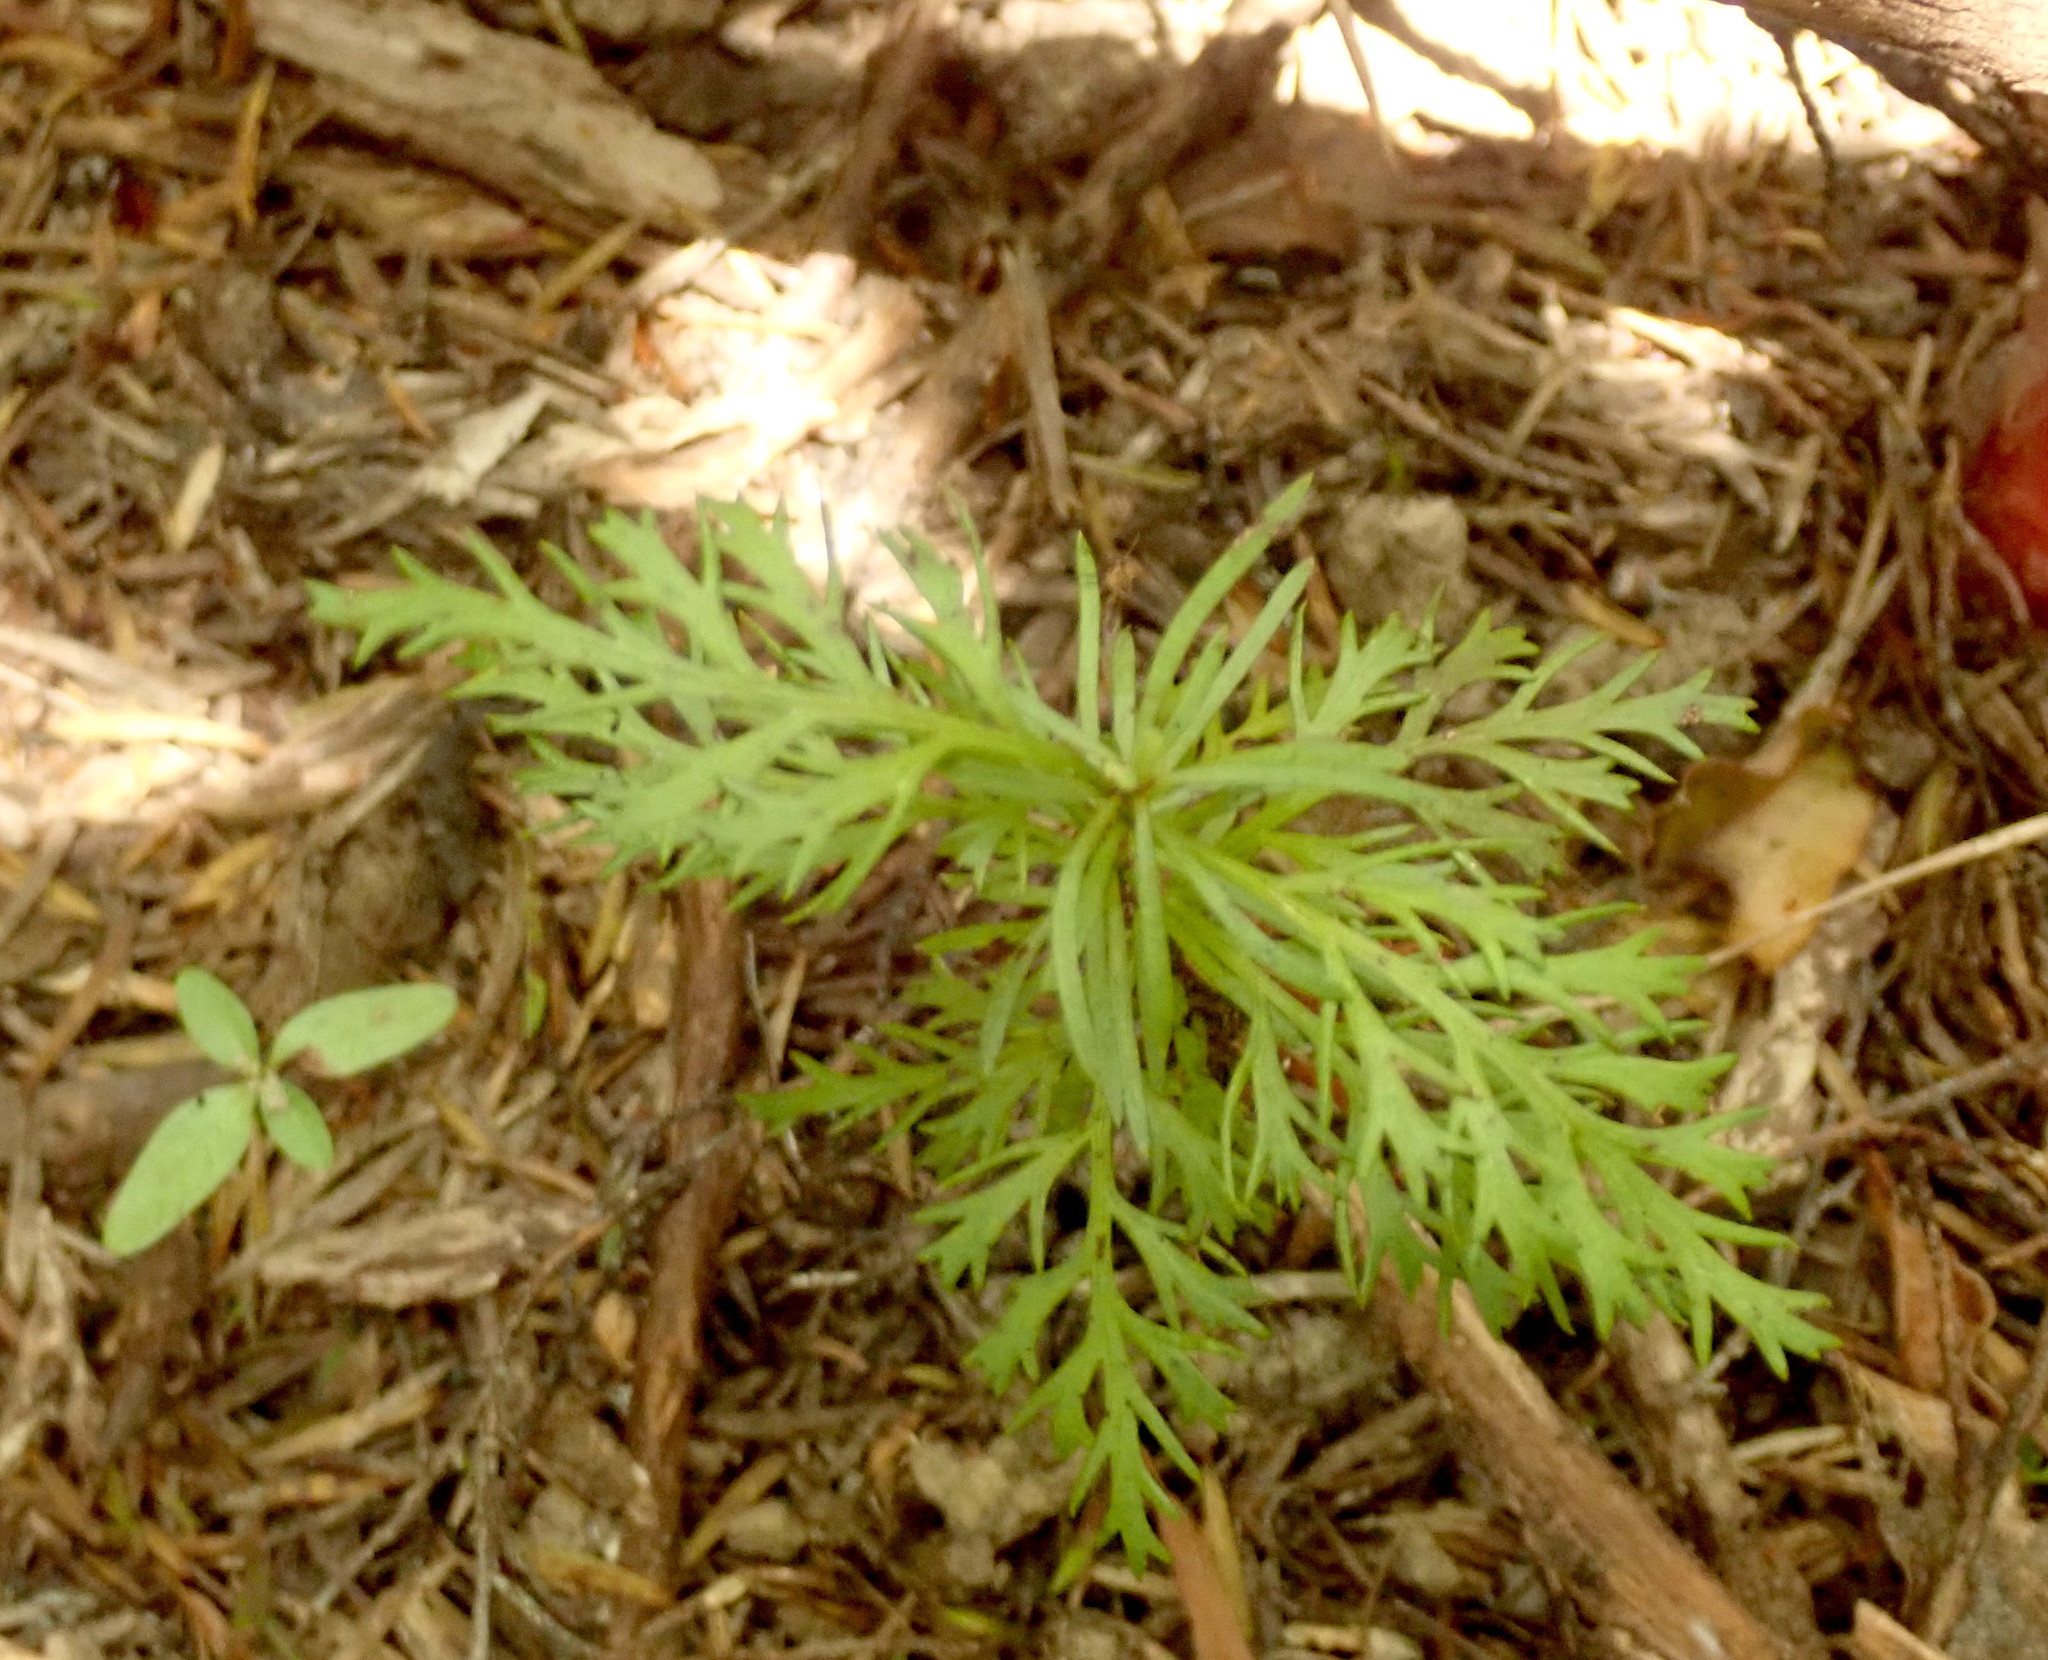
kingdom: Plantae
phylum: Tracheophyta
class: Pinopsida
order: Pinales
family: Phyllocladaceae
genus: Phyllocladus
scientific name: Phyllocladus trichomanoides
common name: Celery pine
